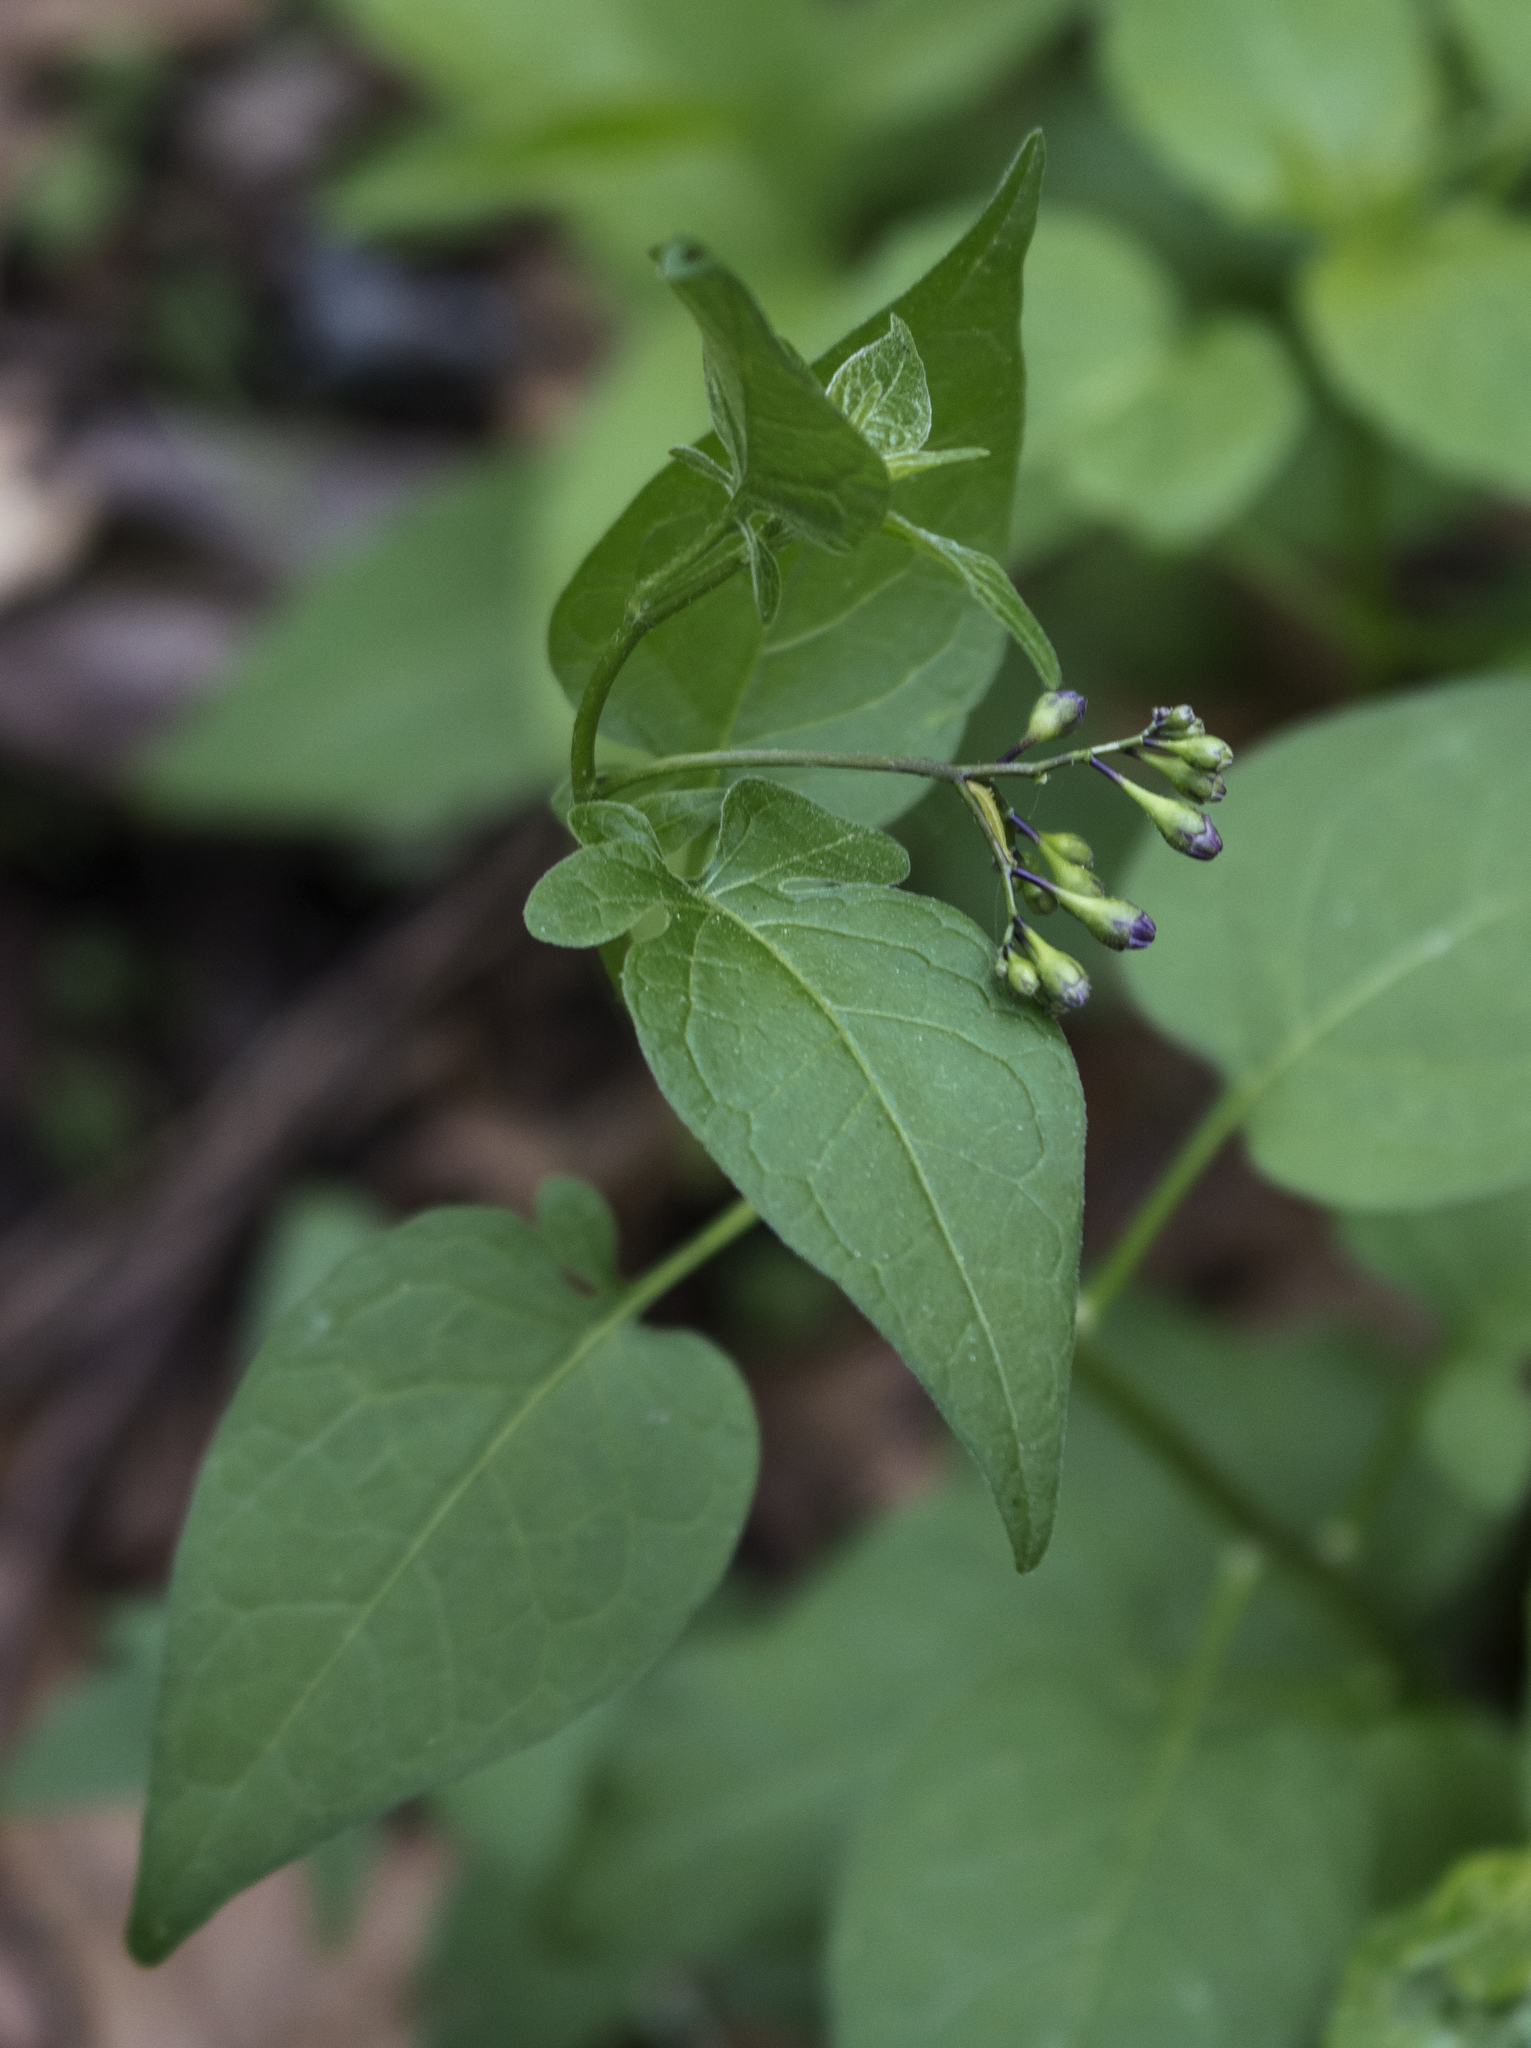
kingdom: Plantae
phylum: Tracheophyta
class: Magnoliopsida
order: Solanales
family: Solanaceae
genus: Solanum
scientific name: Solanum dulcamara
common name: Climbing nightshade
